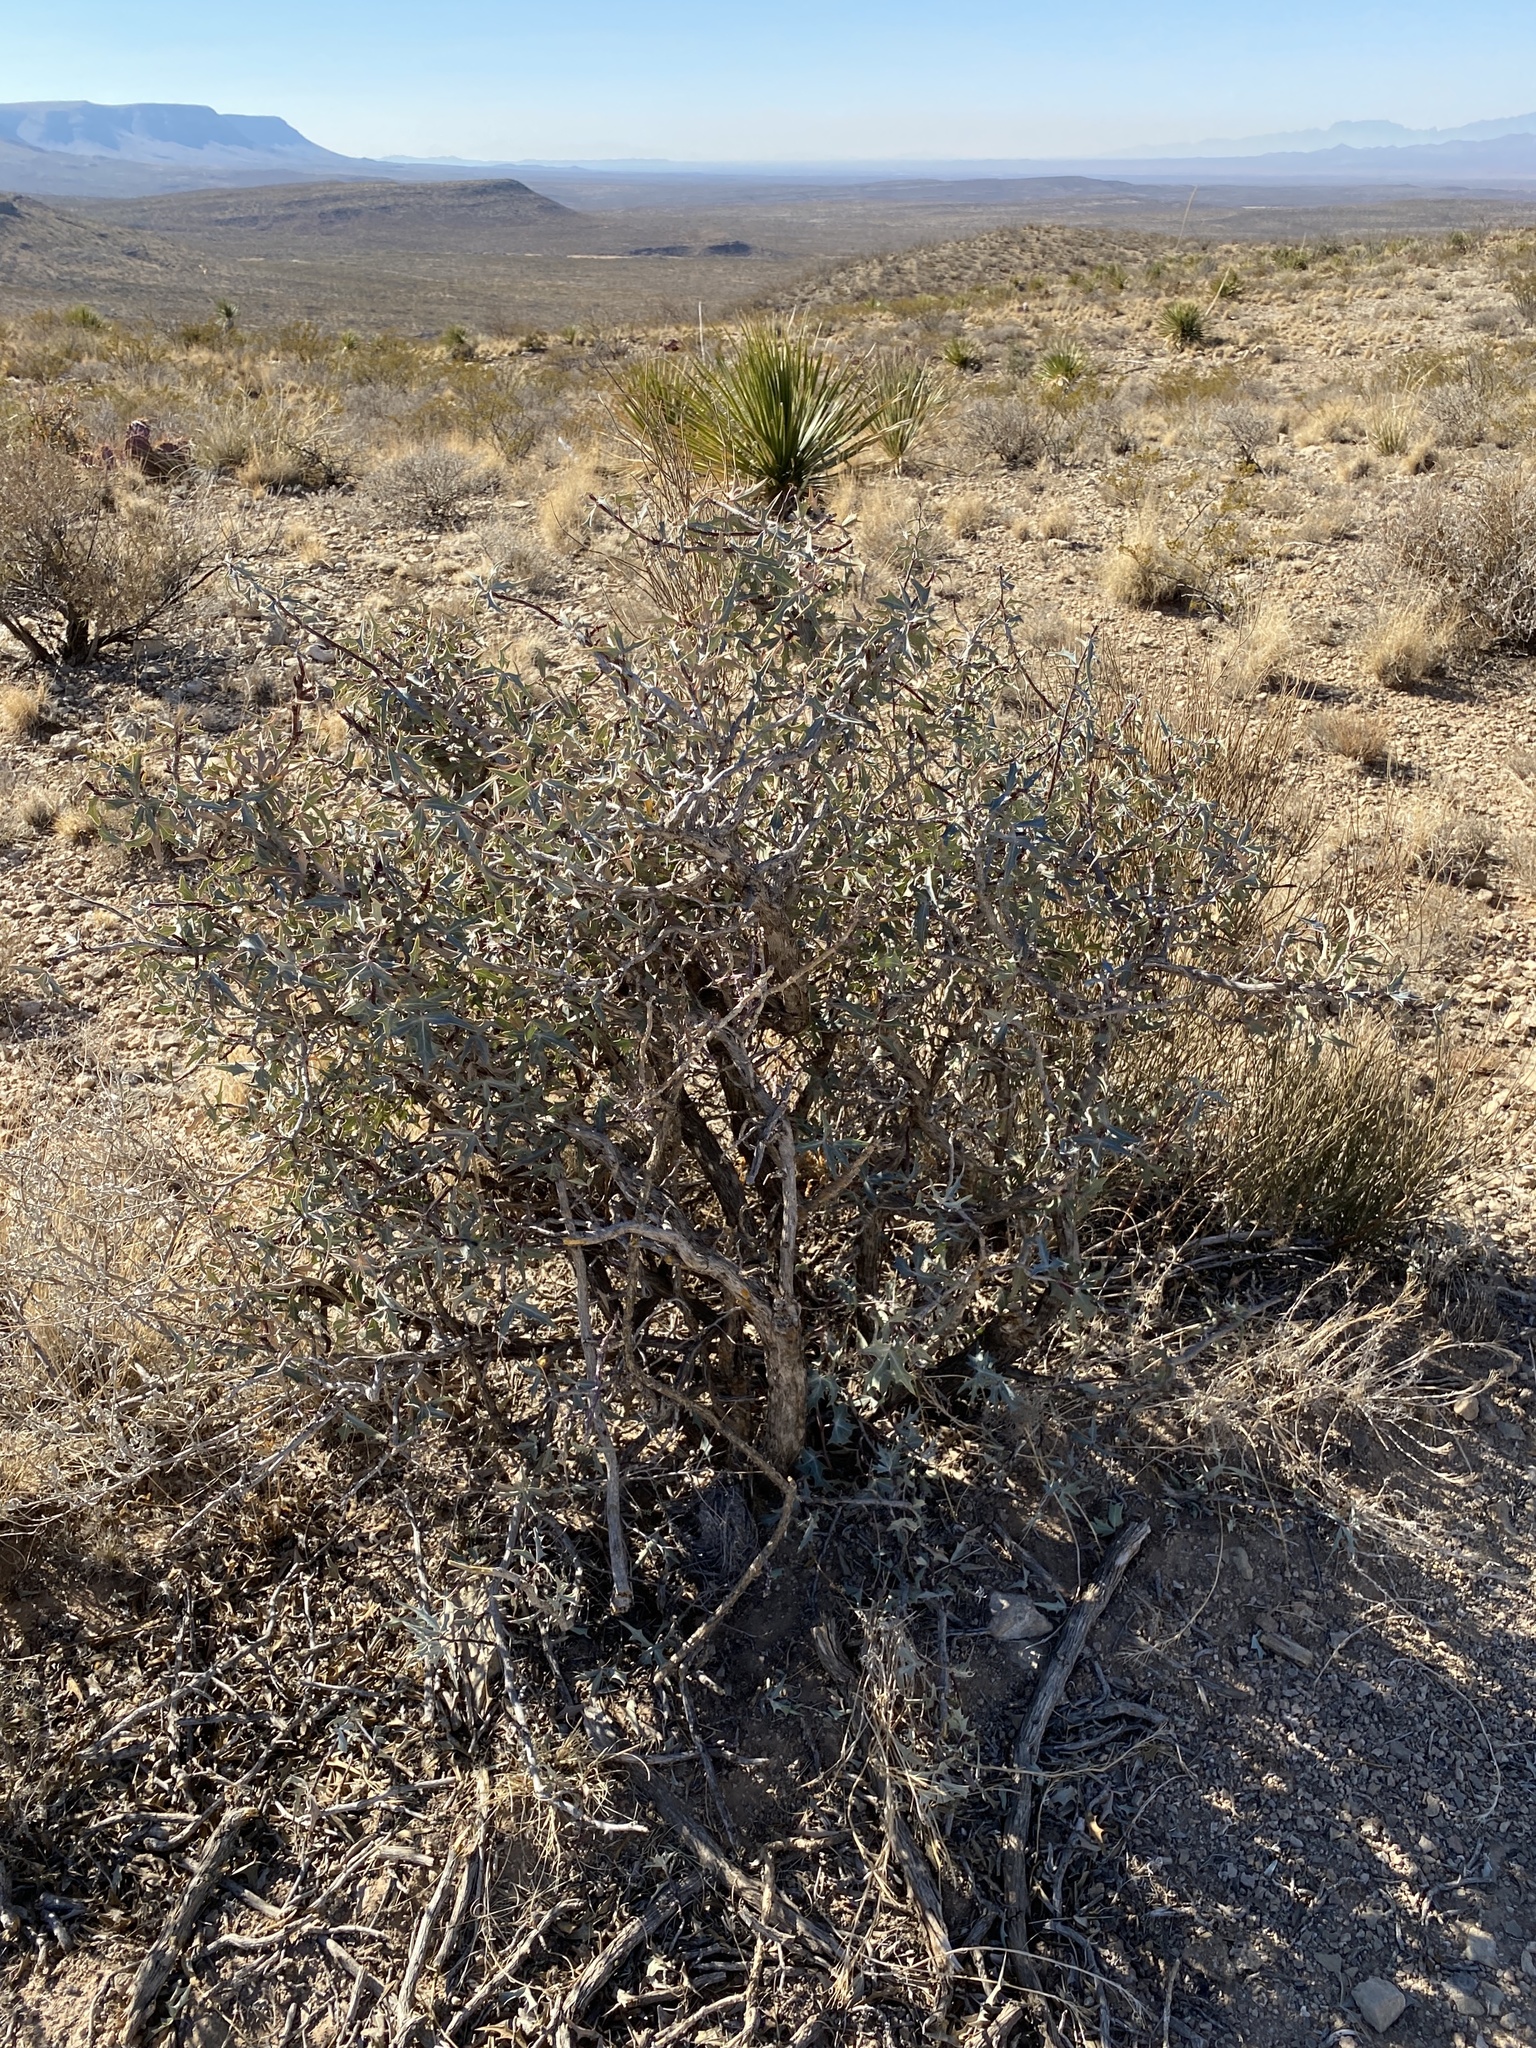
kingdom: Plantae
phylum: Tracheophyta
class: Magnoliopsida
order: Ranunculales
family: Berberidaceae
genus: Alloberberis
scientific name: Alloberberis trifoliolata
